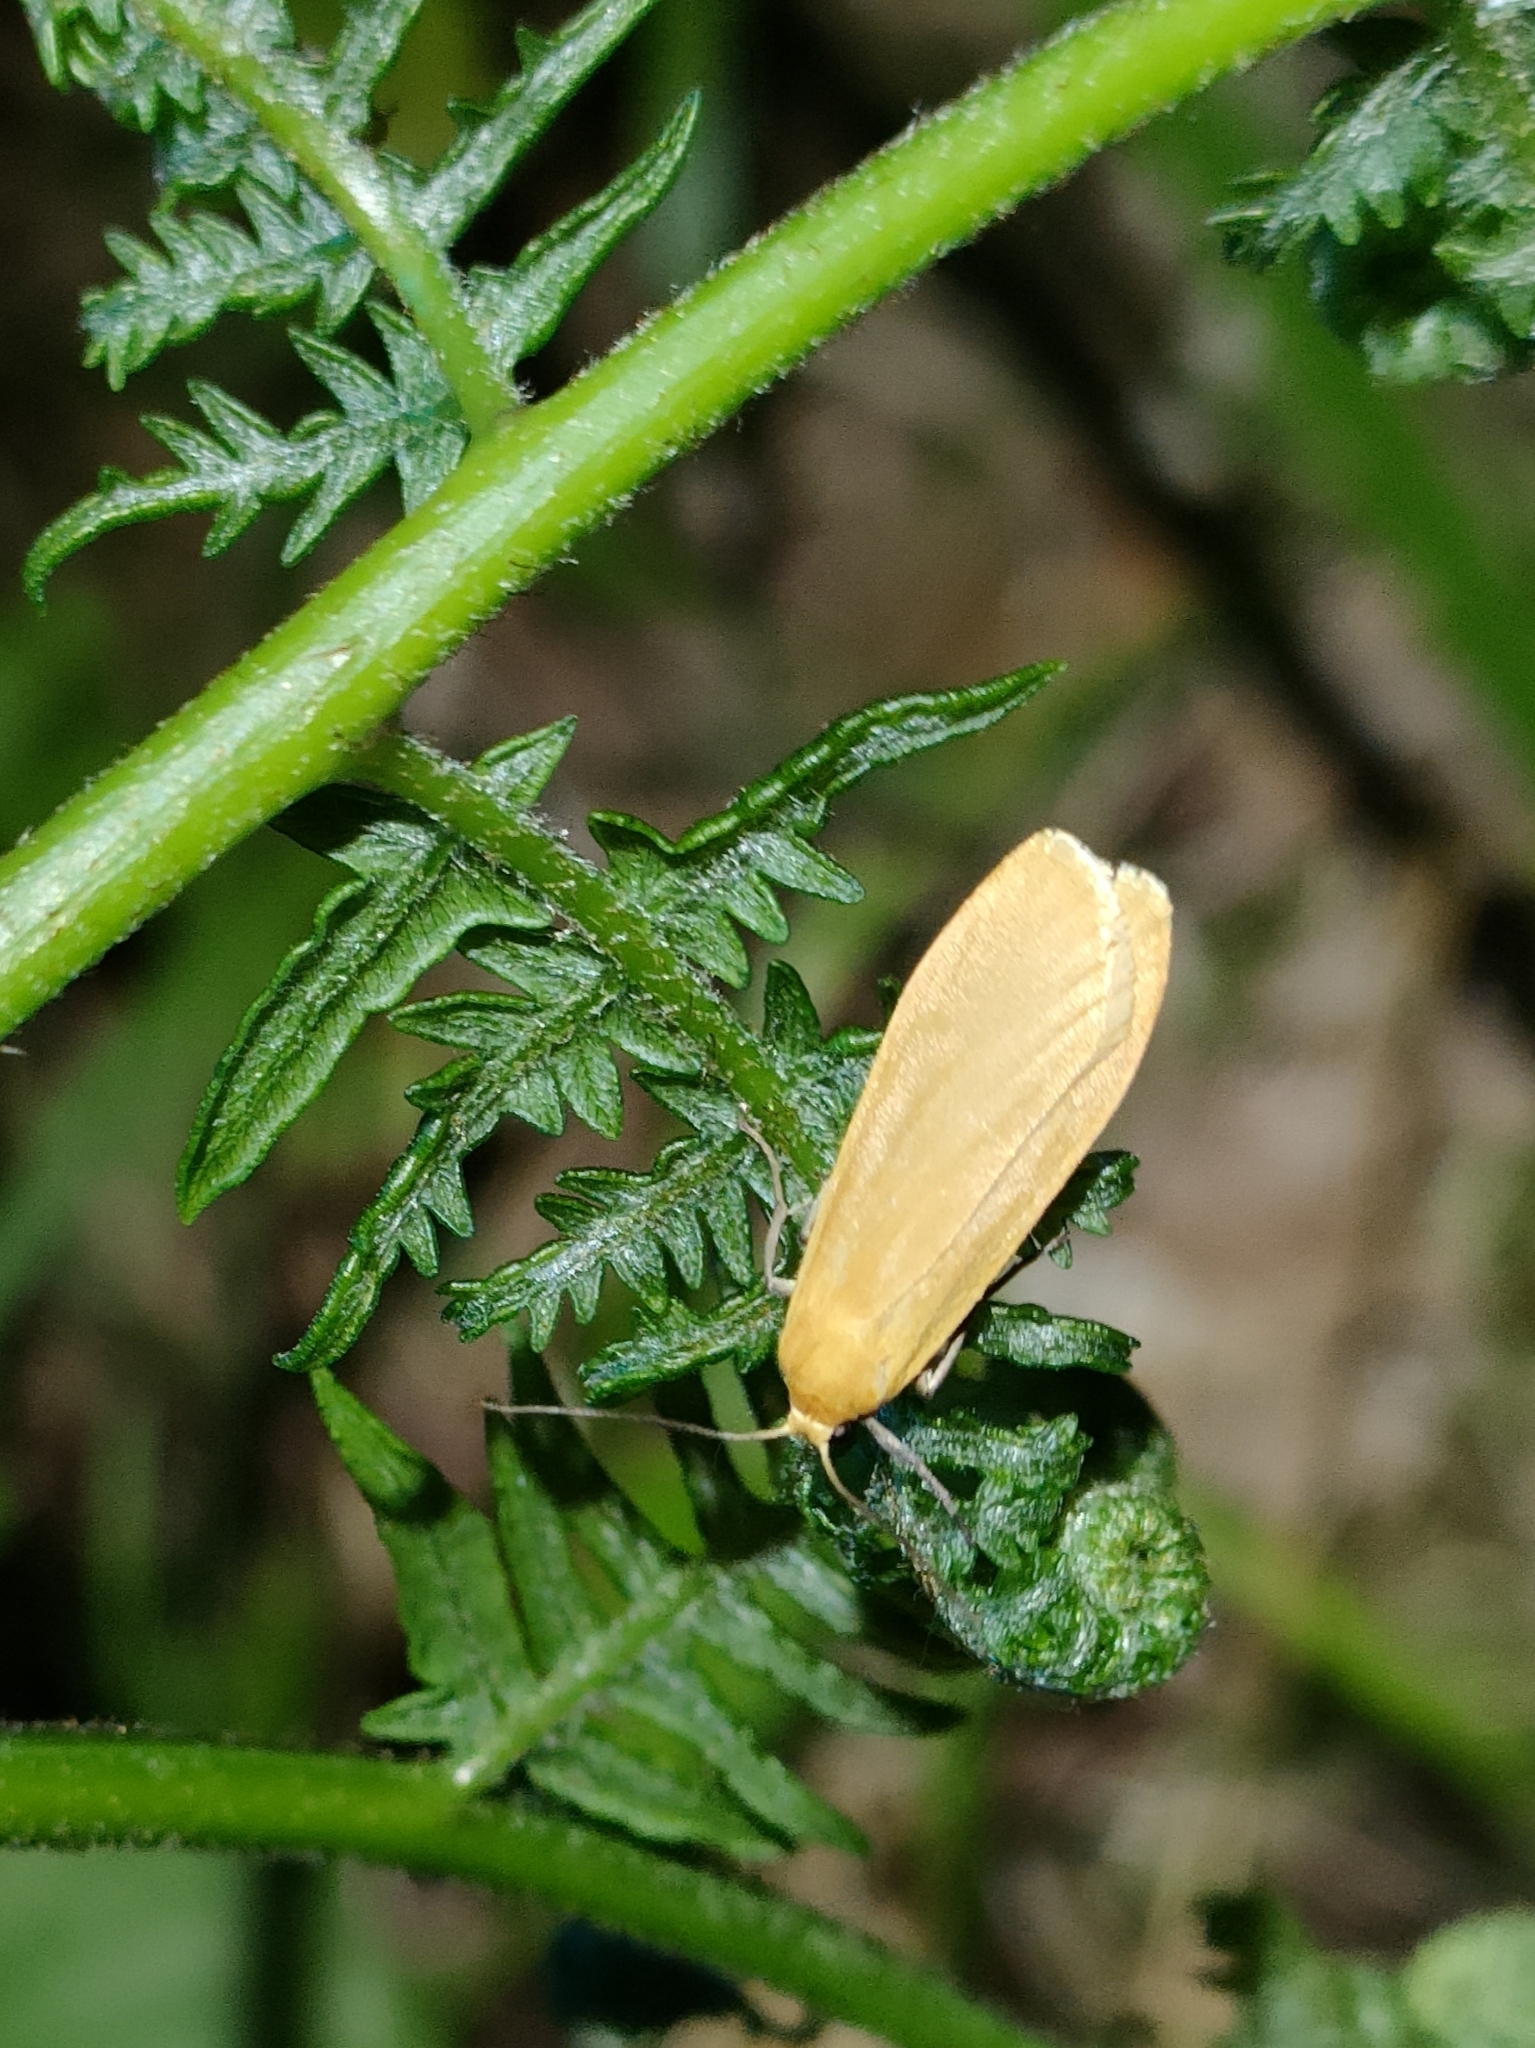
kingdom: Animalia
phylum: Arthropoda
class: Insecta
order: Lepidoptera
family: Erebidae
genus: Wittia
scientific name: Wittia sororcula
